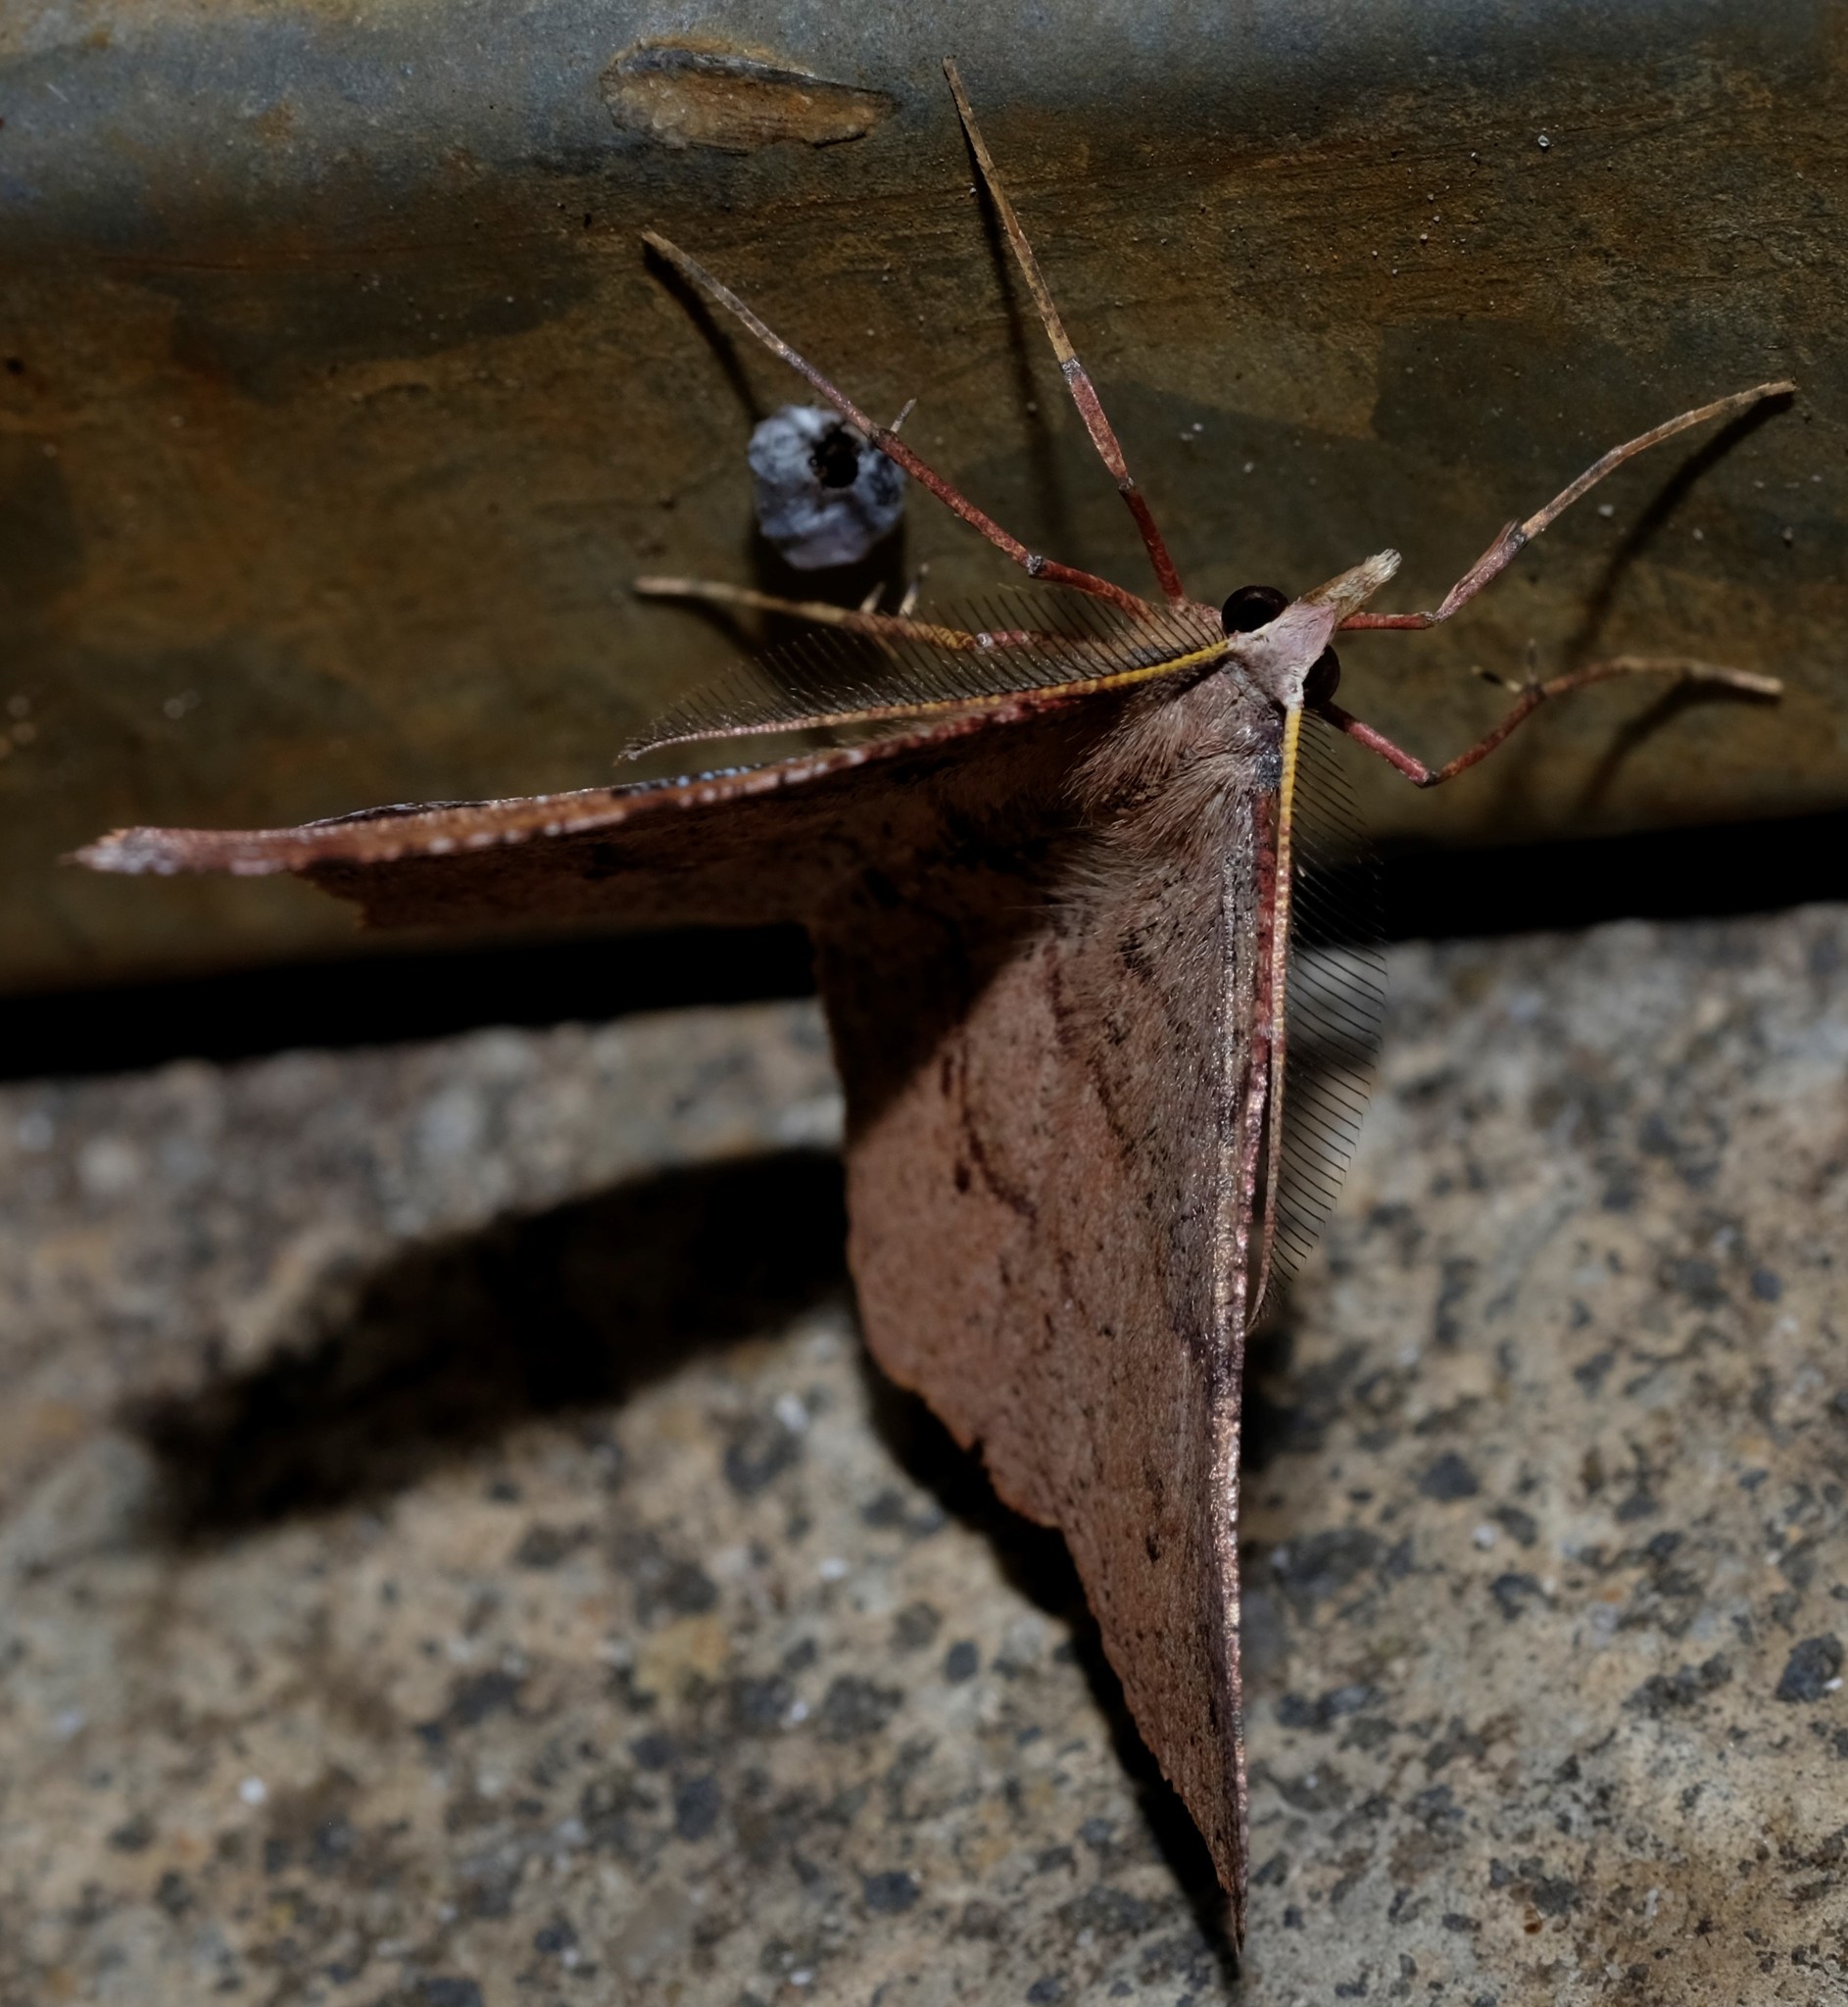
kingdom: Animalia
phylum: Arthropoda
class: Insecta
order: Lepidoptera
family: Geometridae
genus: Rhinodia
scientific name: Rhinodia rostraria
